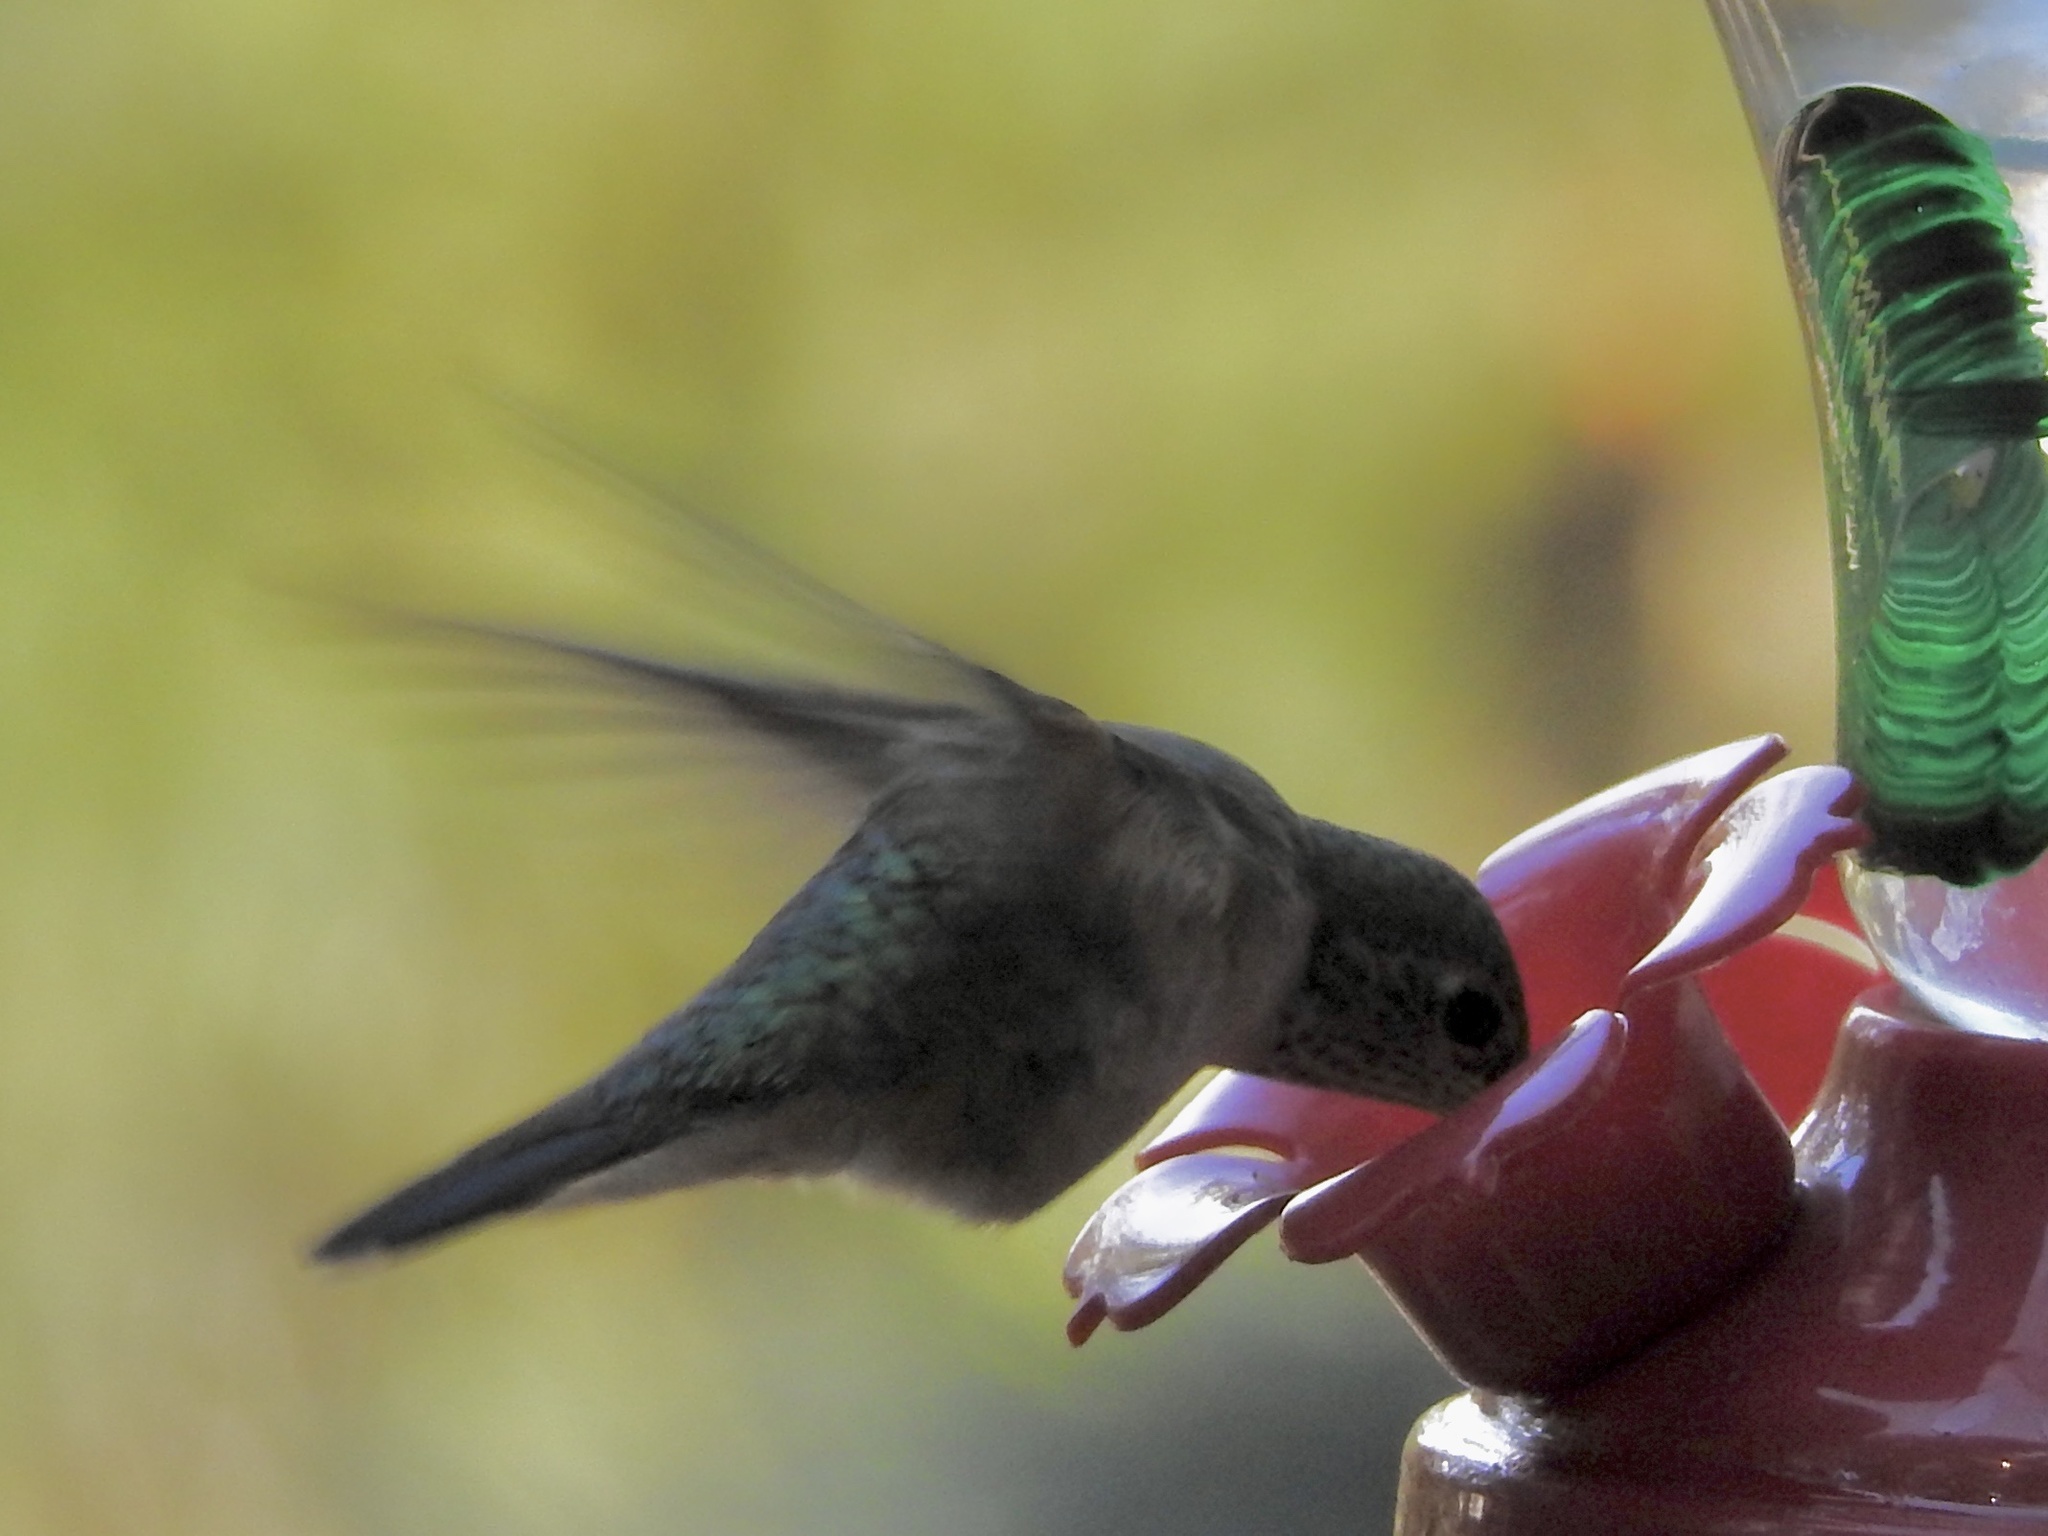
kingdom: Animalia
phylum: Chordata
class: Aves
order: Apodiformes
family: Trochilidae
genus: Archilochus
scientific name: Archilochus alexandri
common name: Black-chinned hummingbird
